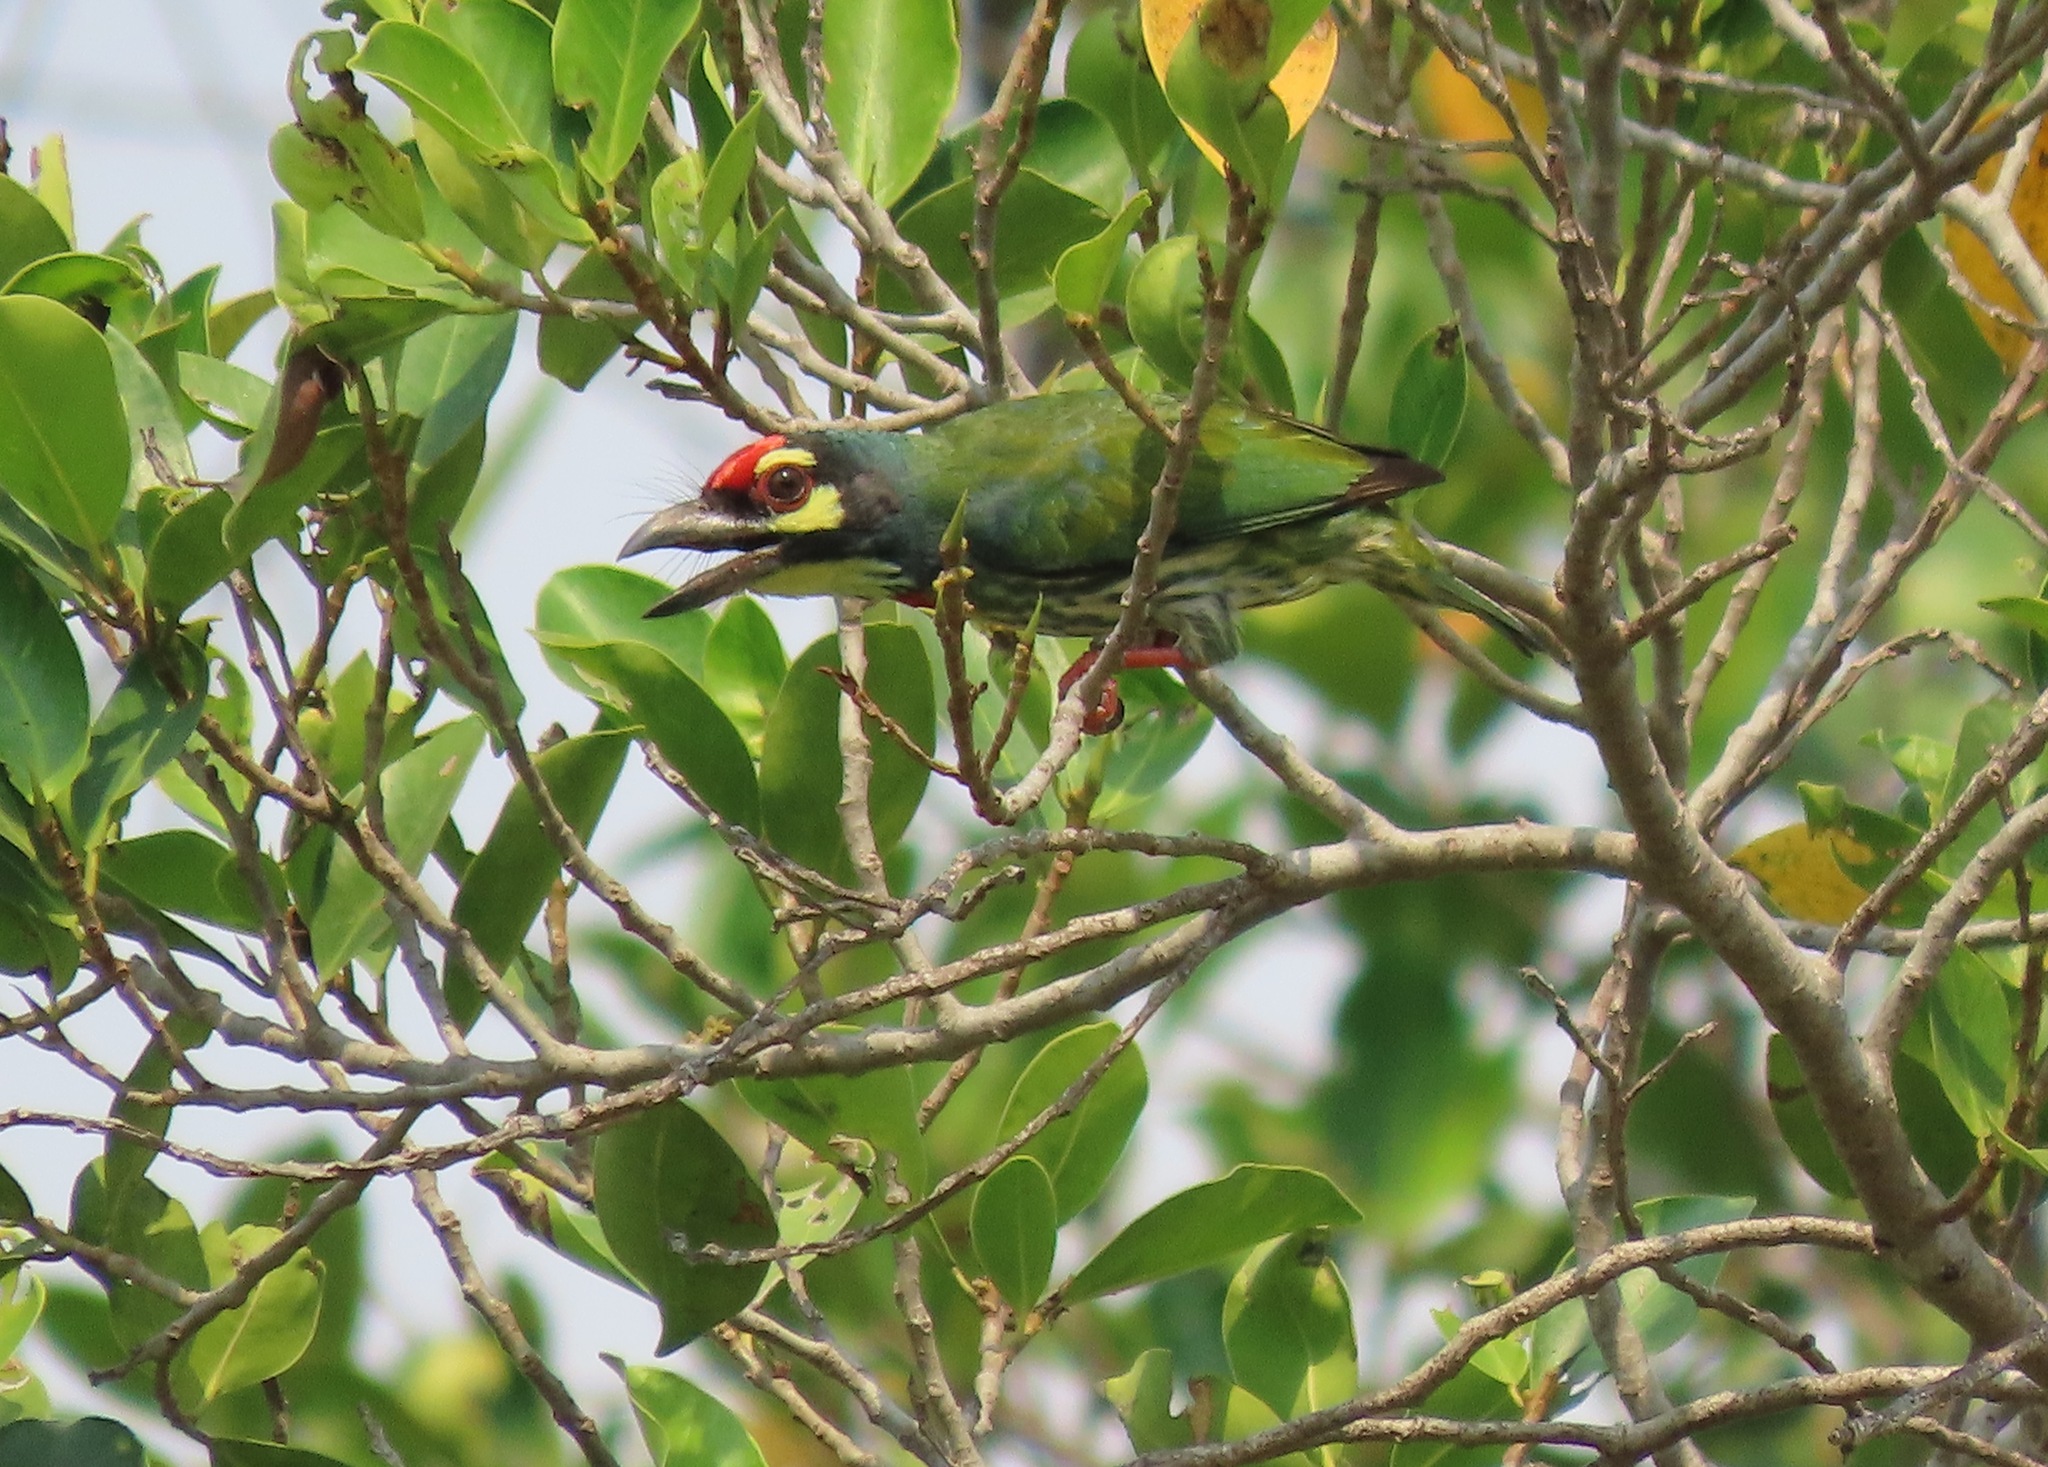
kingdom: Animalia
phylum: Chordata
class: Aves
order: Piciformes
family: Megalaimidae
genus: Psilopogon
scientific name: Psilopogon haemacephalus
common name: Coppersmith barbet
